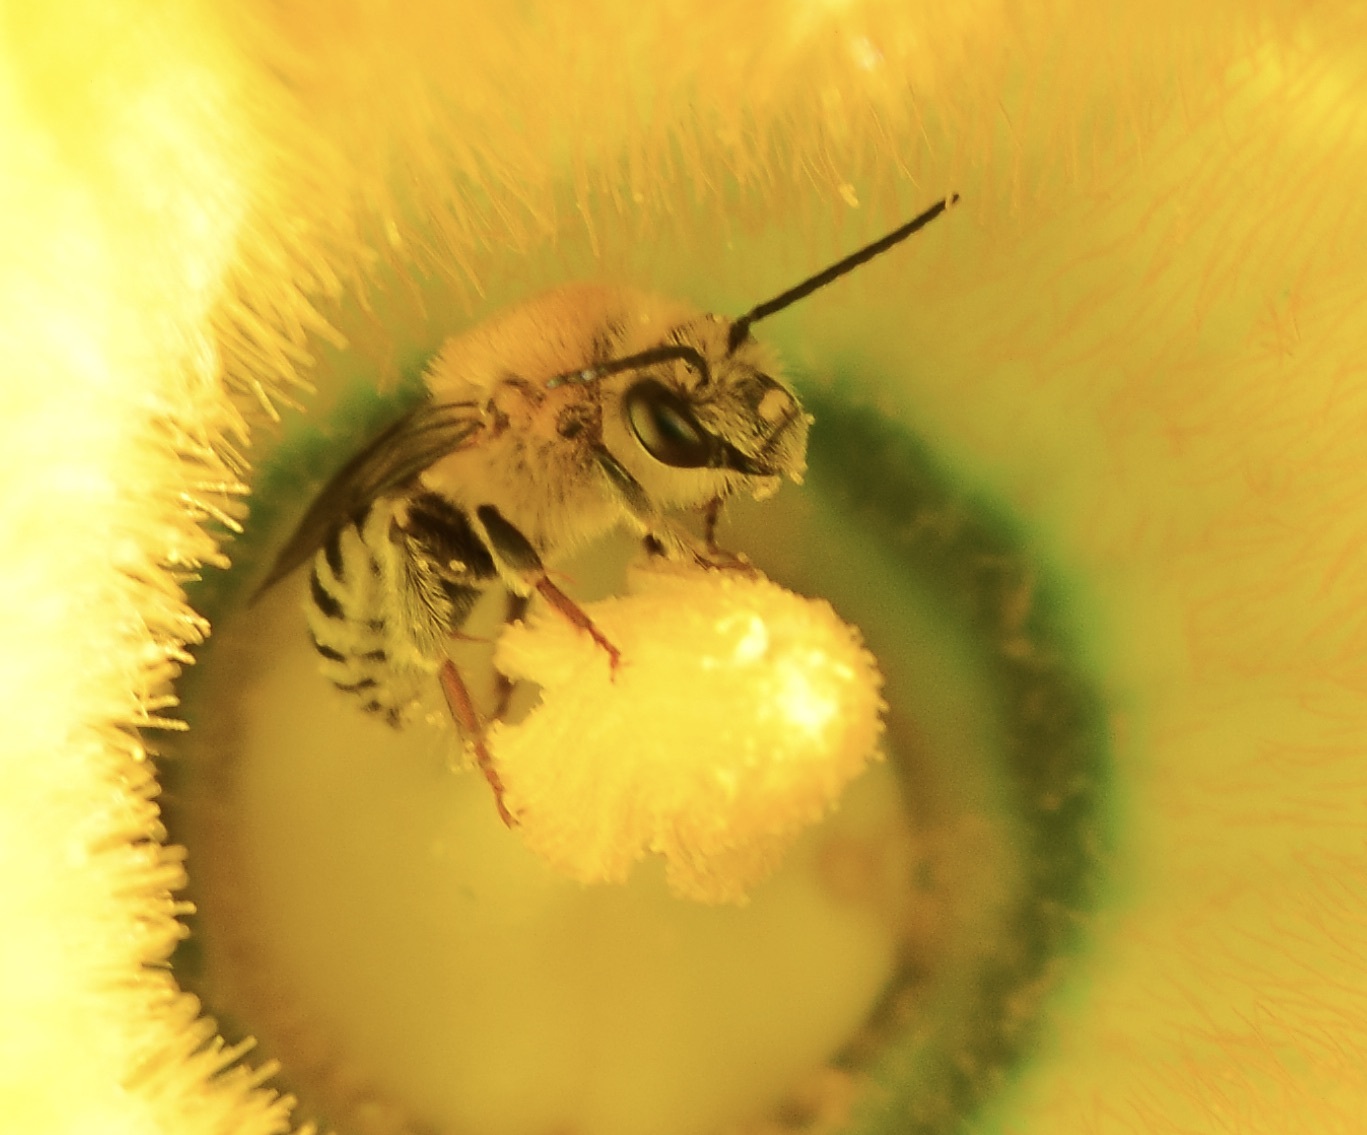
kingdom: Animalia
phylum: Arthropoda
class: Insecta
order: Hymenoptera
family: Apidae
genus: Peponapis
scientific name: Peponapis pruinosa
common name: Pruinose squash bee
